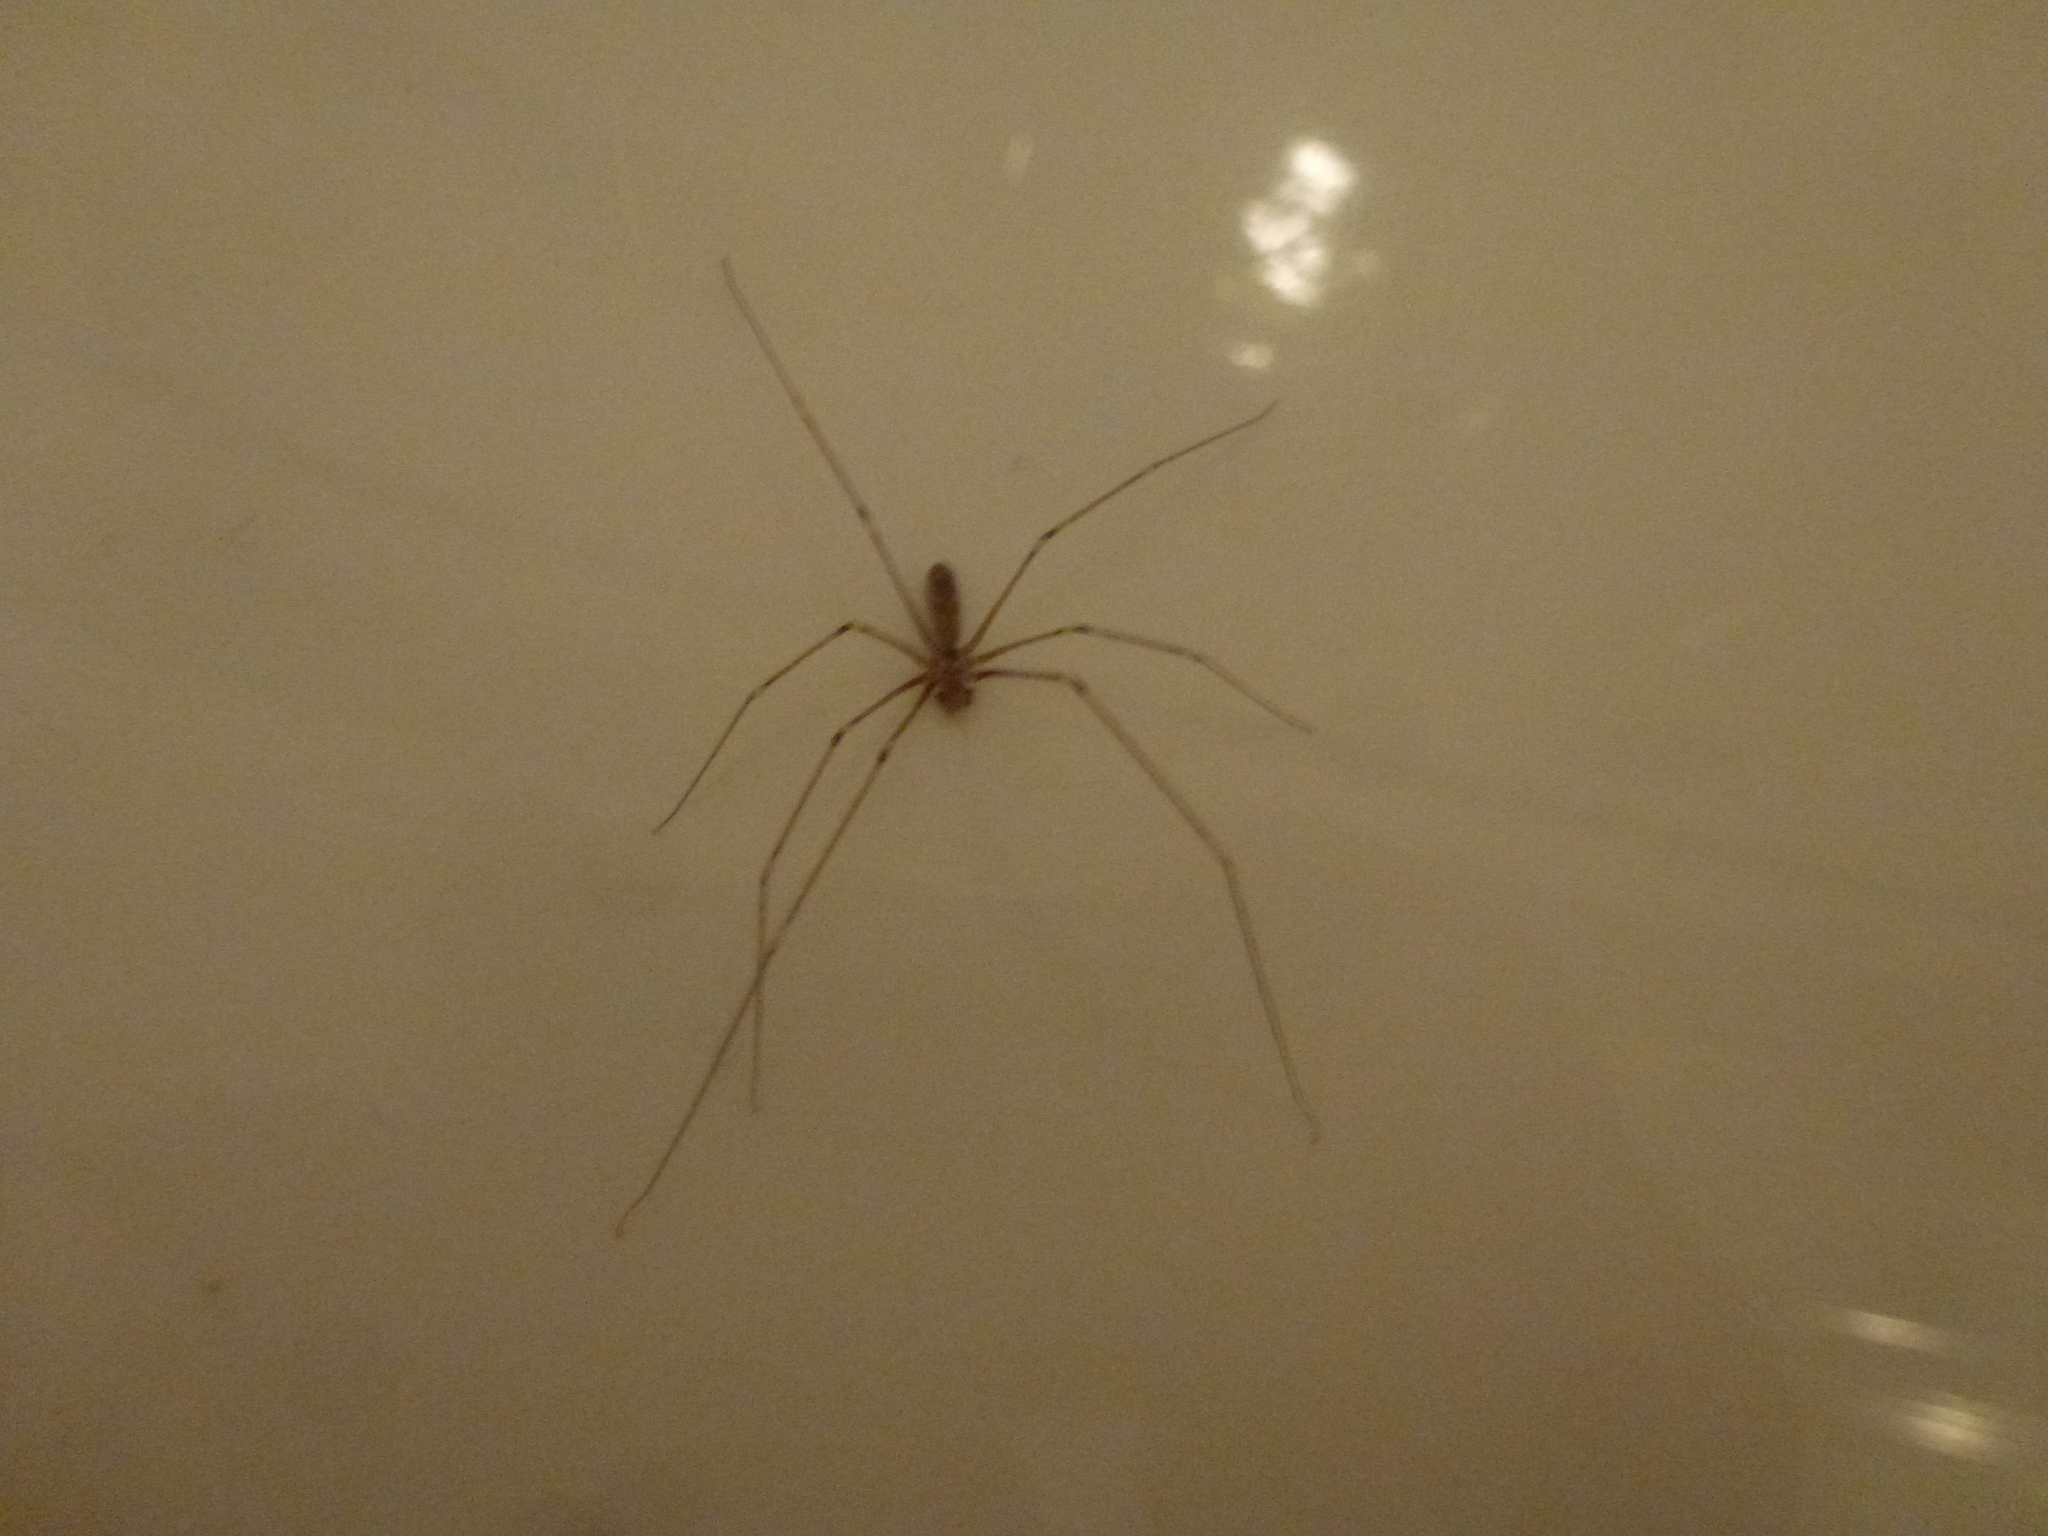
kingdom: Animalia
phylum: Arthropoda
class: Arachnida
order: Araneae
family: Pholcidae
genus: Pholcus
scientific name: Pholcus phalangioides
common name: Longbodied cellar spider
